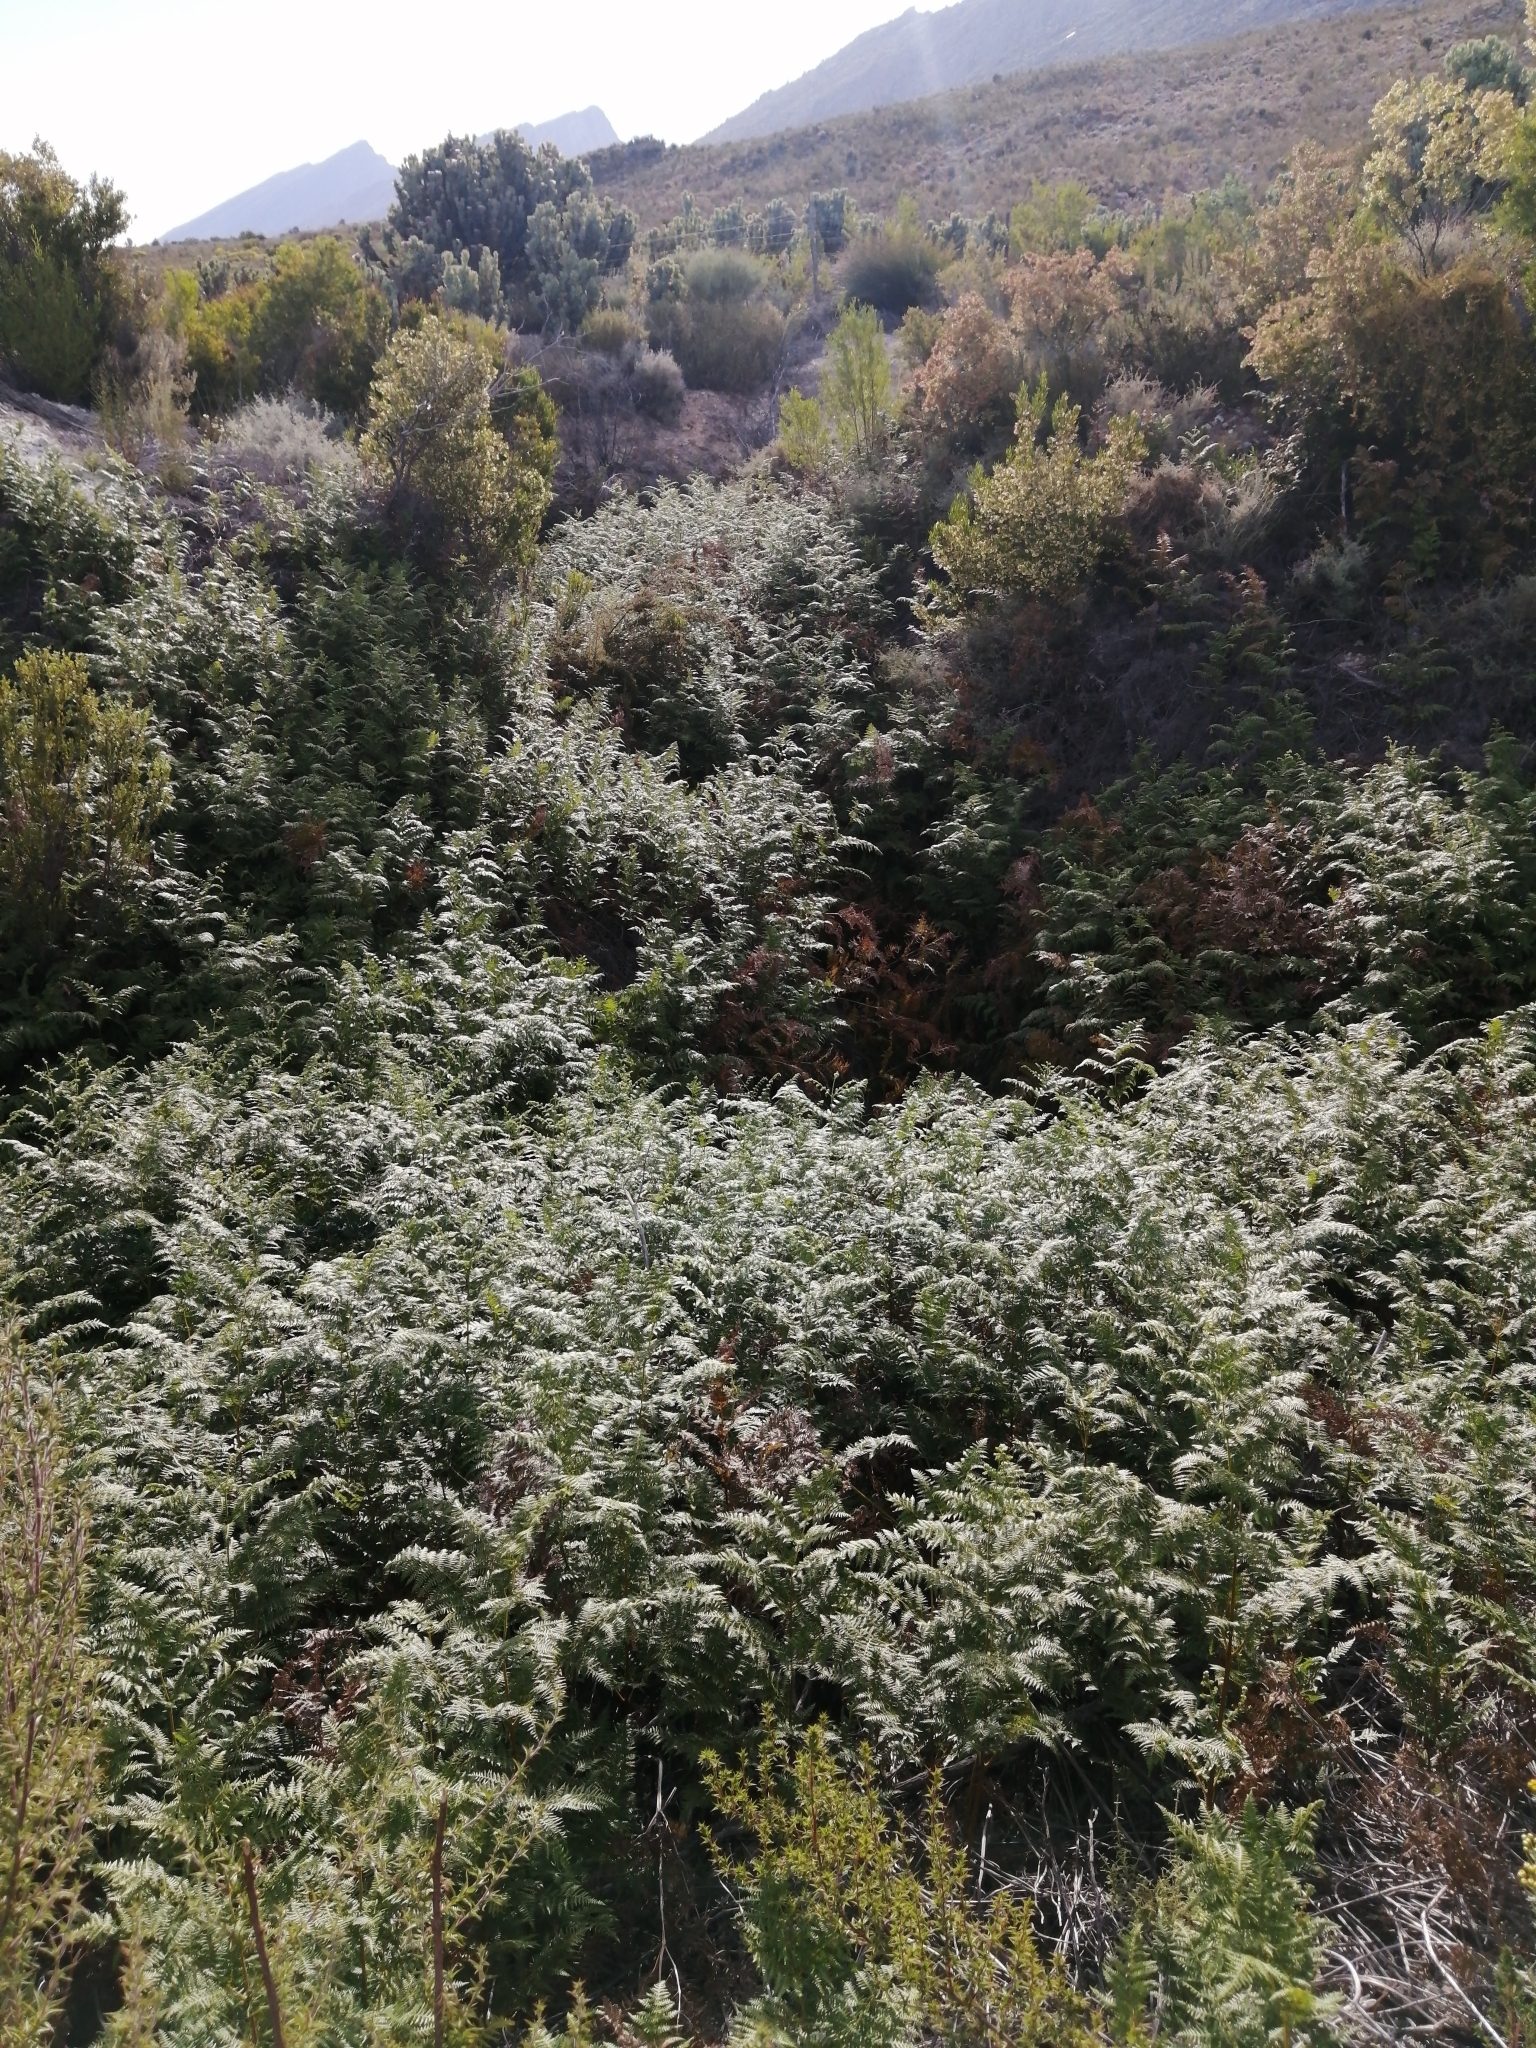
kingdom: Plantae
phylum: Tracheophyta
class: Polypodiopsida
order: Polypodiales
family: Dennstaedtiaceae
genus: Pteridium
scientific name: Pteridium aquilinum
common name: Bracken
